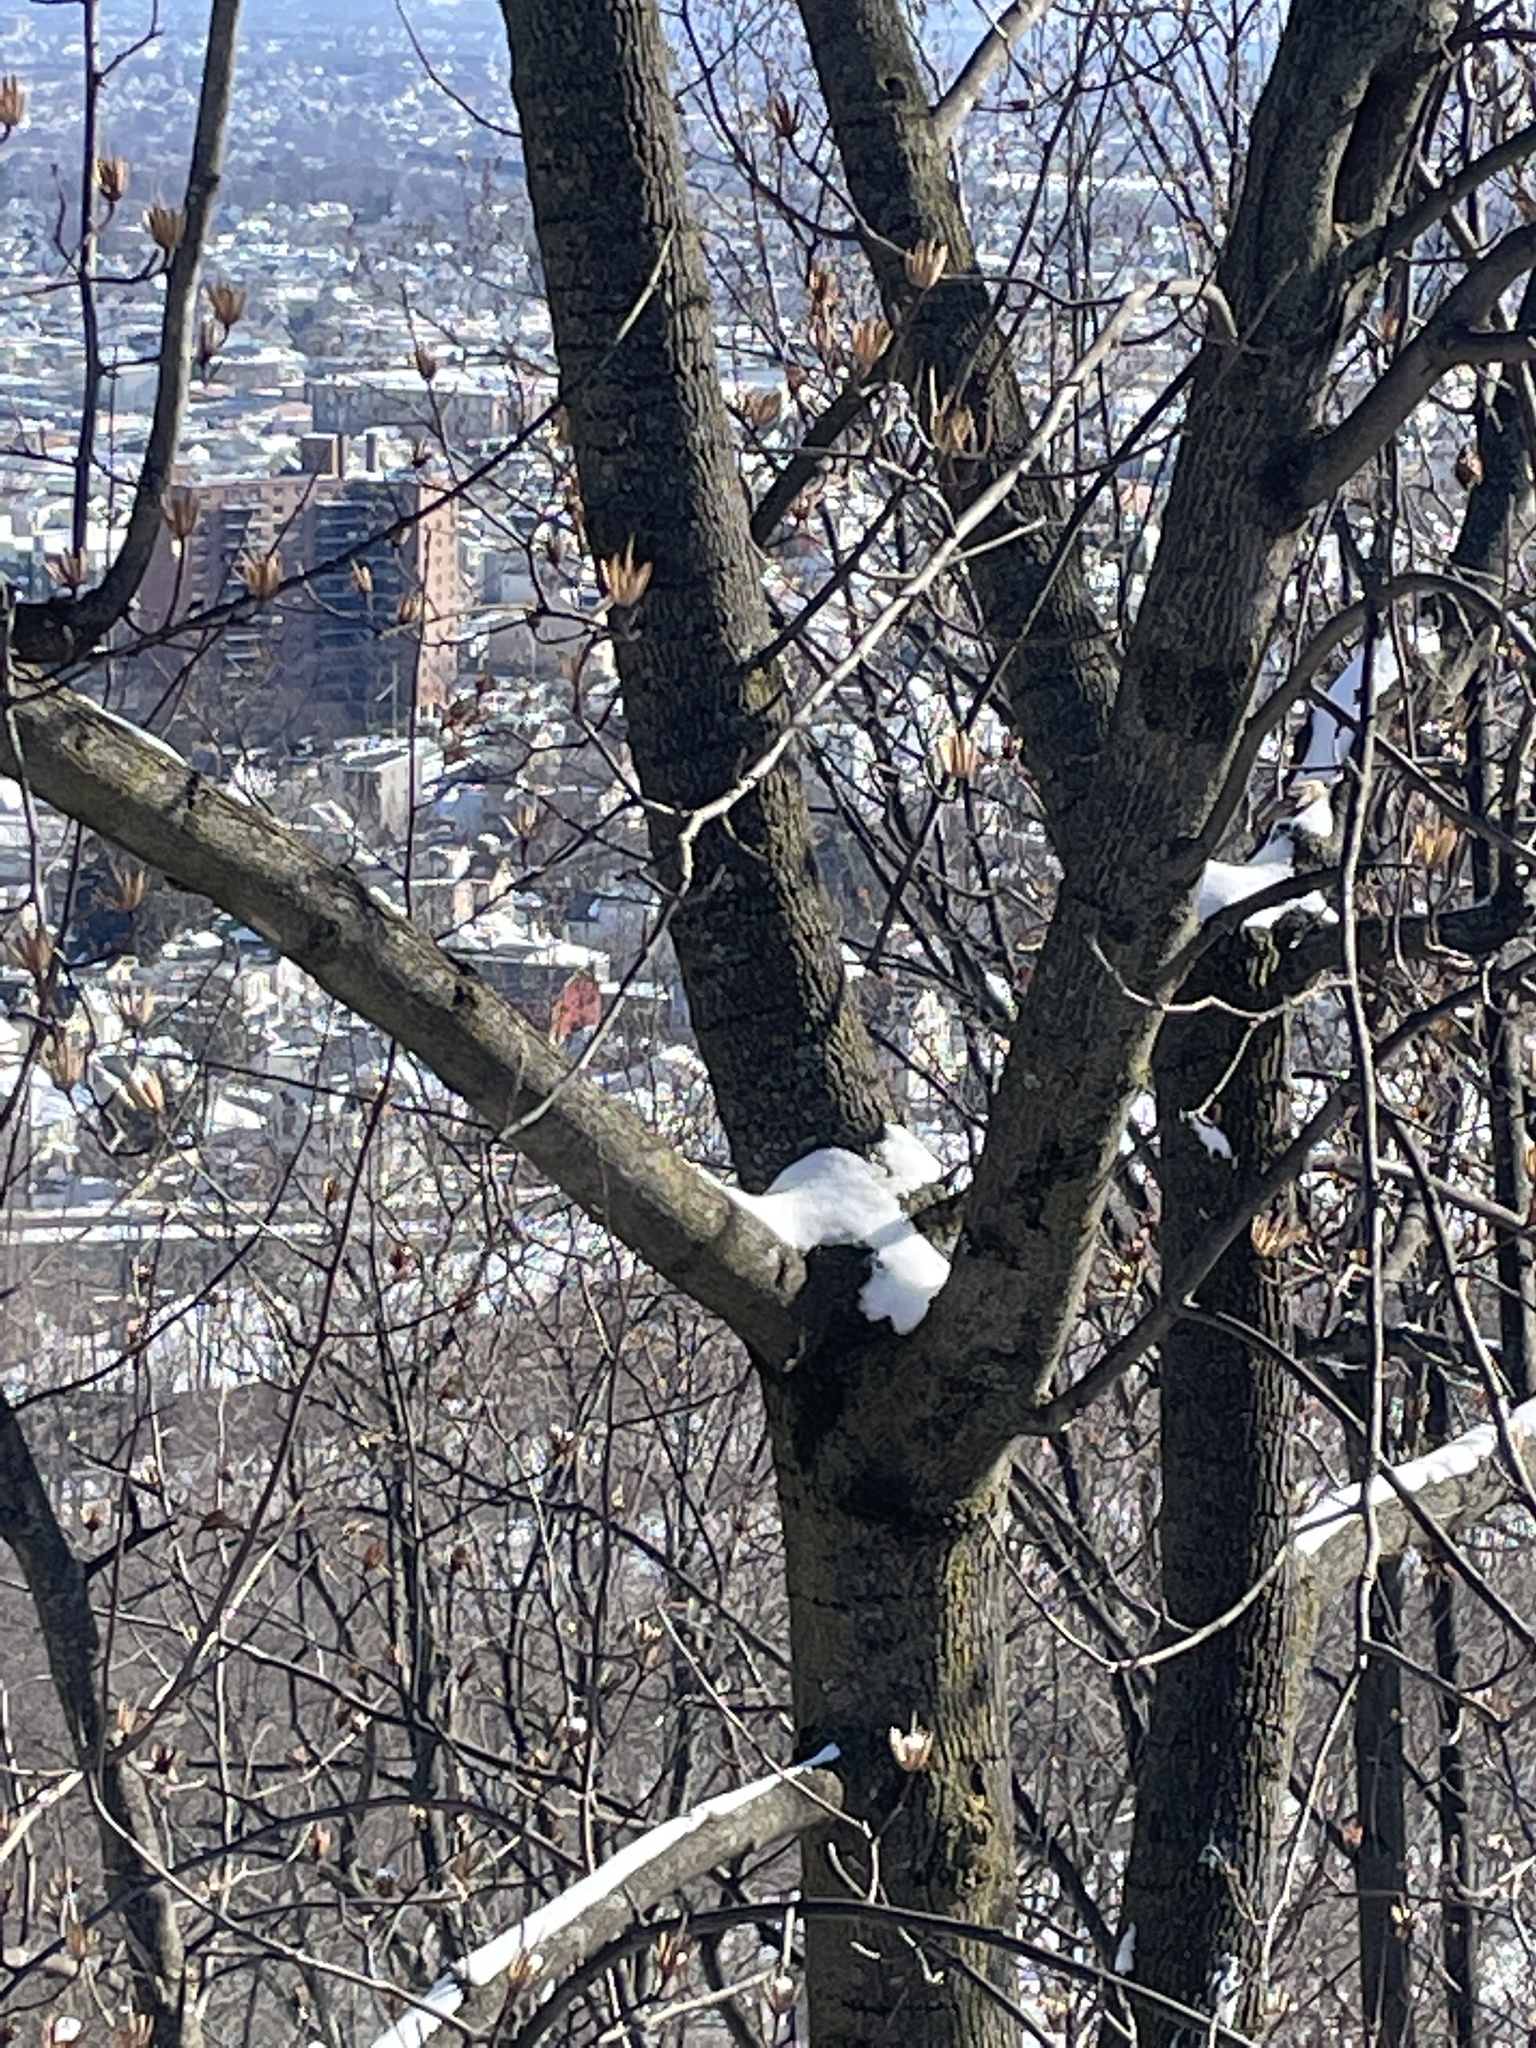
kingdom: Plantae
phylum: Tracheophyta
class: Magnoliopsida
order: Magnoliales
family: Magnoliaceae
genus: Liriodendron
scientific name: Liriodendron tulipifera
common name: Tulip tree
